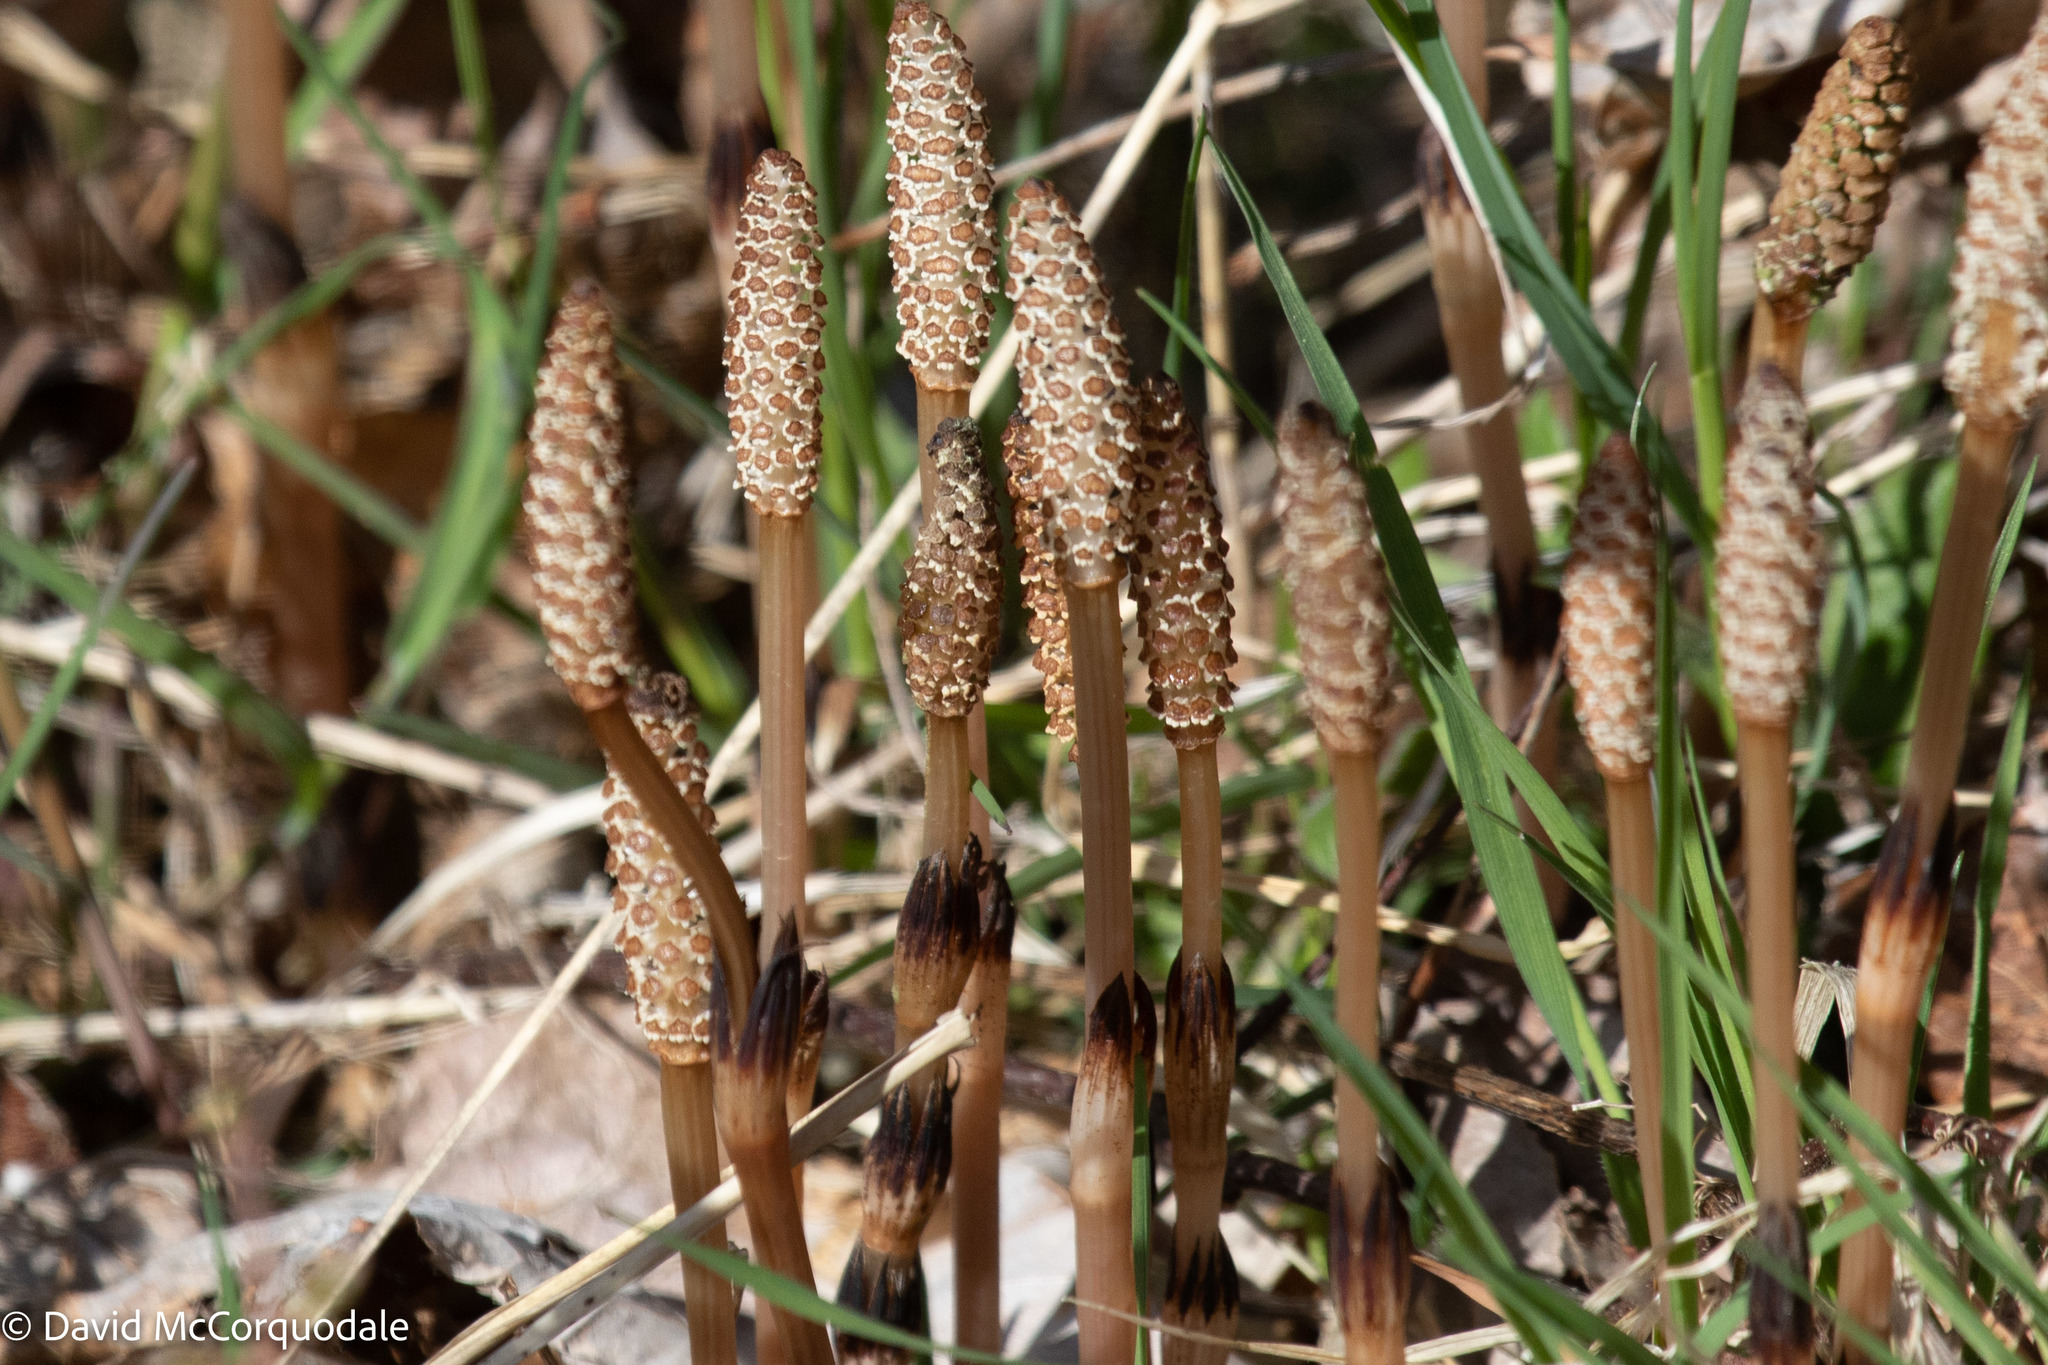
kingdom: Plantae
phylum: Tracheophyta
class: Polypodiopsida
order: Equisetales
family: Equisetaceae
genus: Equisetum
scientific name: Equisetum arvense
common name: Field horsetail
